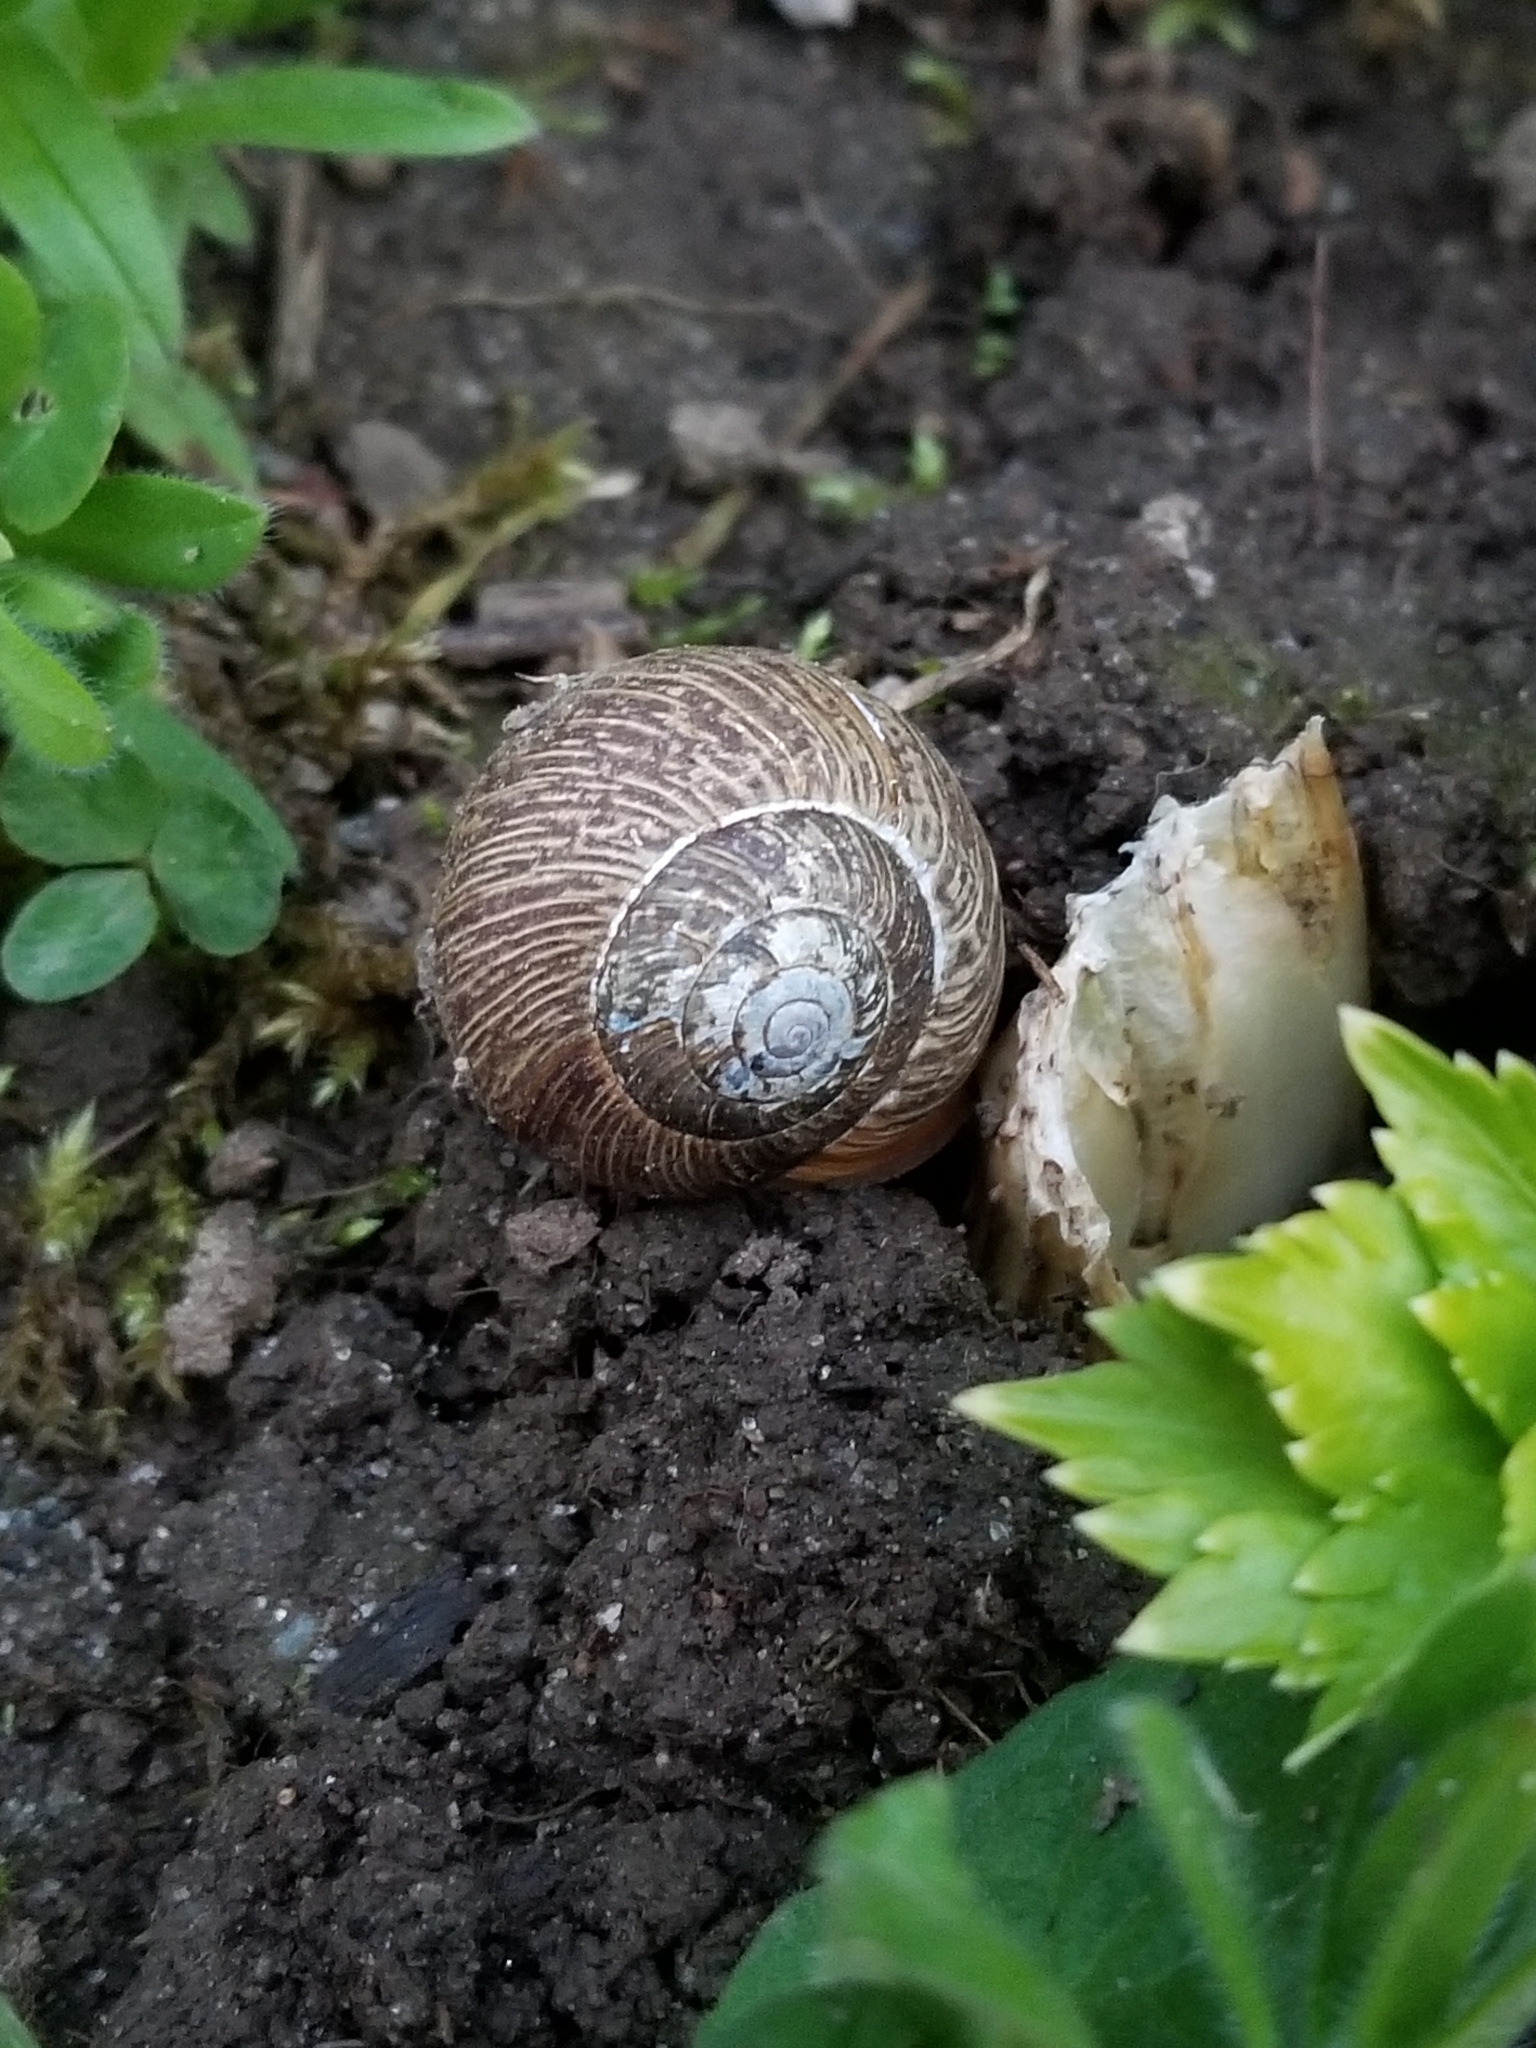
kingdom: Animalia
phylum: Mollusca
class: Gastropoda
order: Stylommatophora
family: Polygyridae
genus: Allogona
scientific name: Allogona townsendiana
